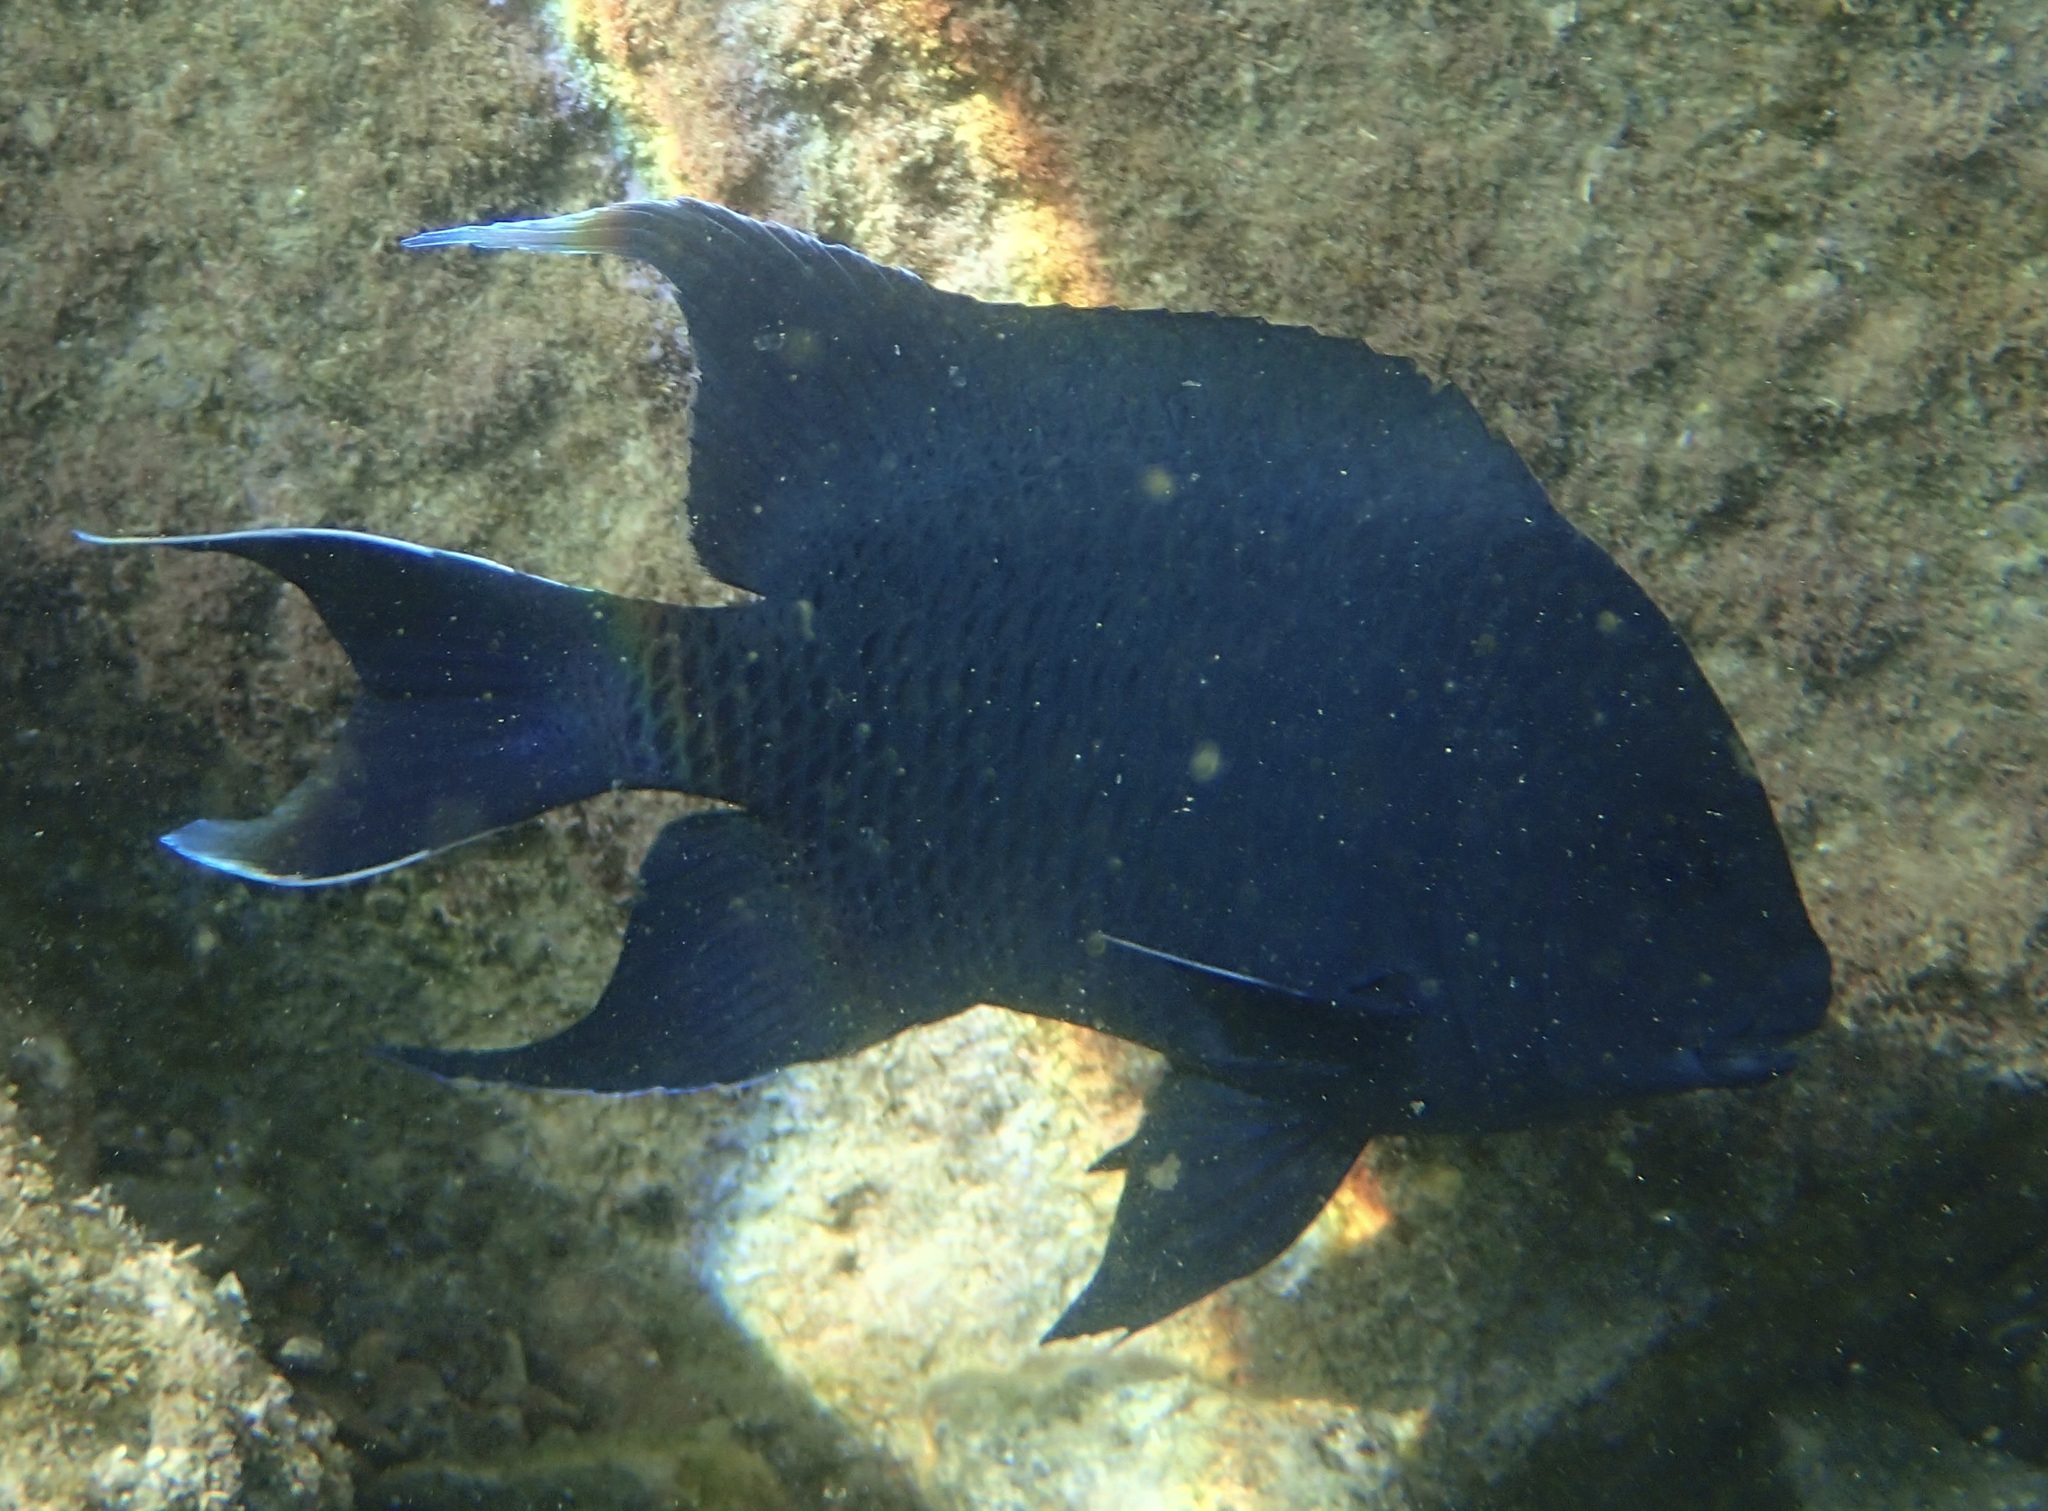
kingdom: Animalia
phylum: Chordata
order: Perciformes
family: Pomacentridae
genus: Microspathodon
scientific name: Microspathodon dorsalis
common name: Giant damselfish
